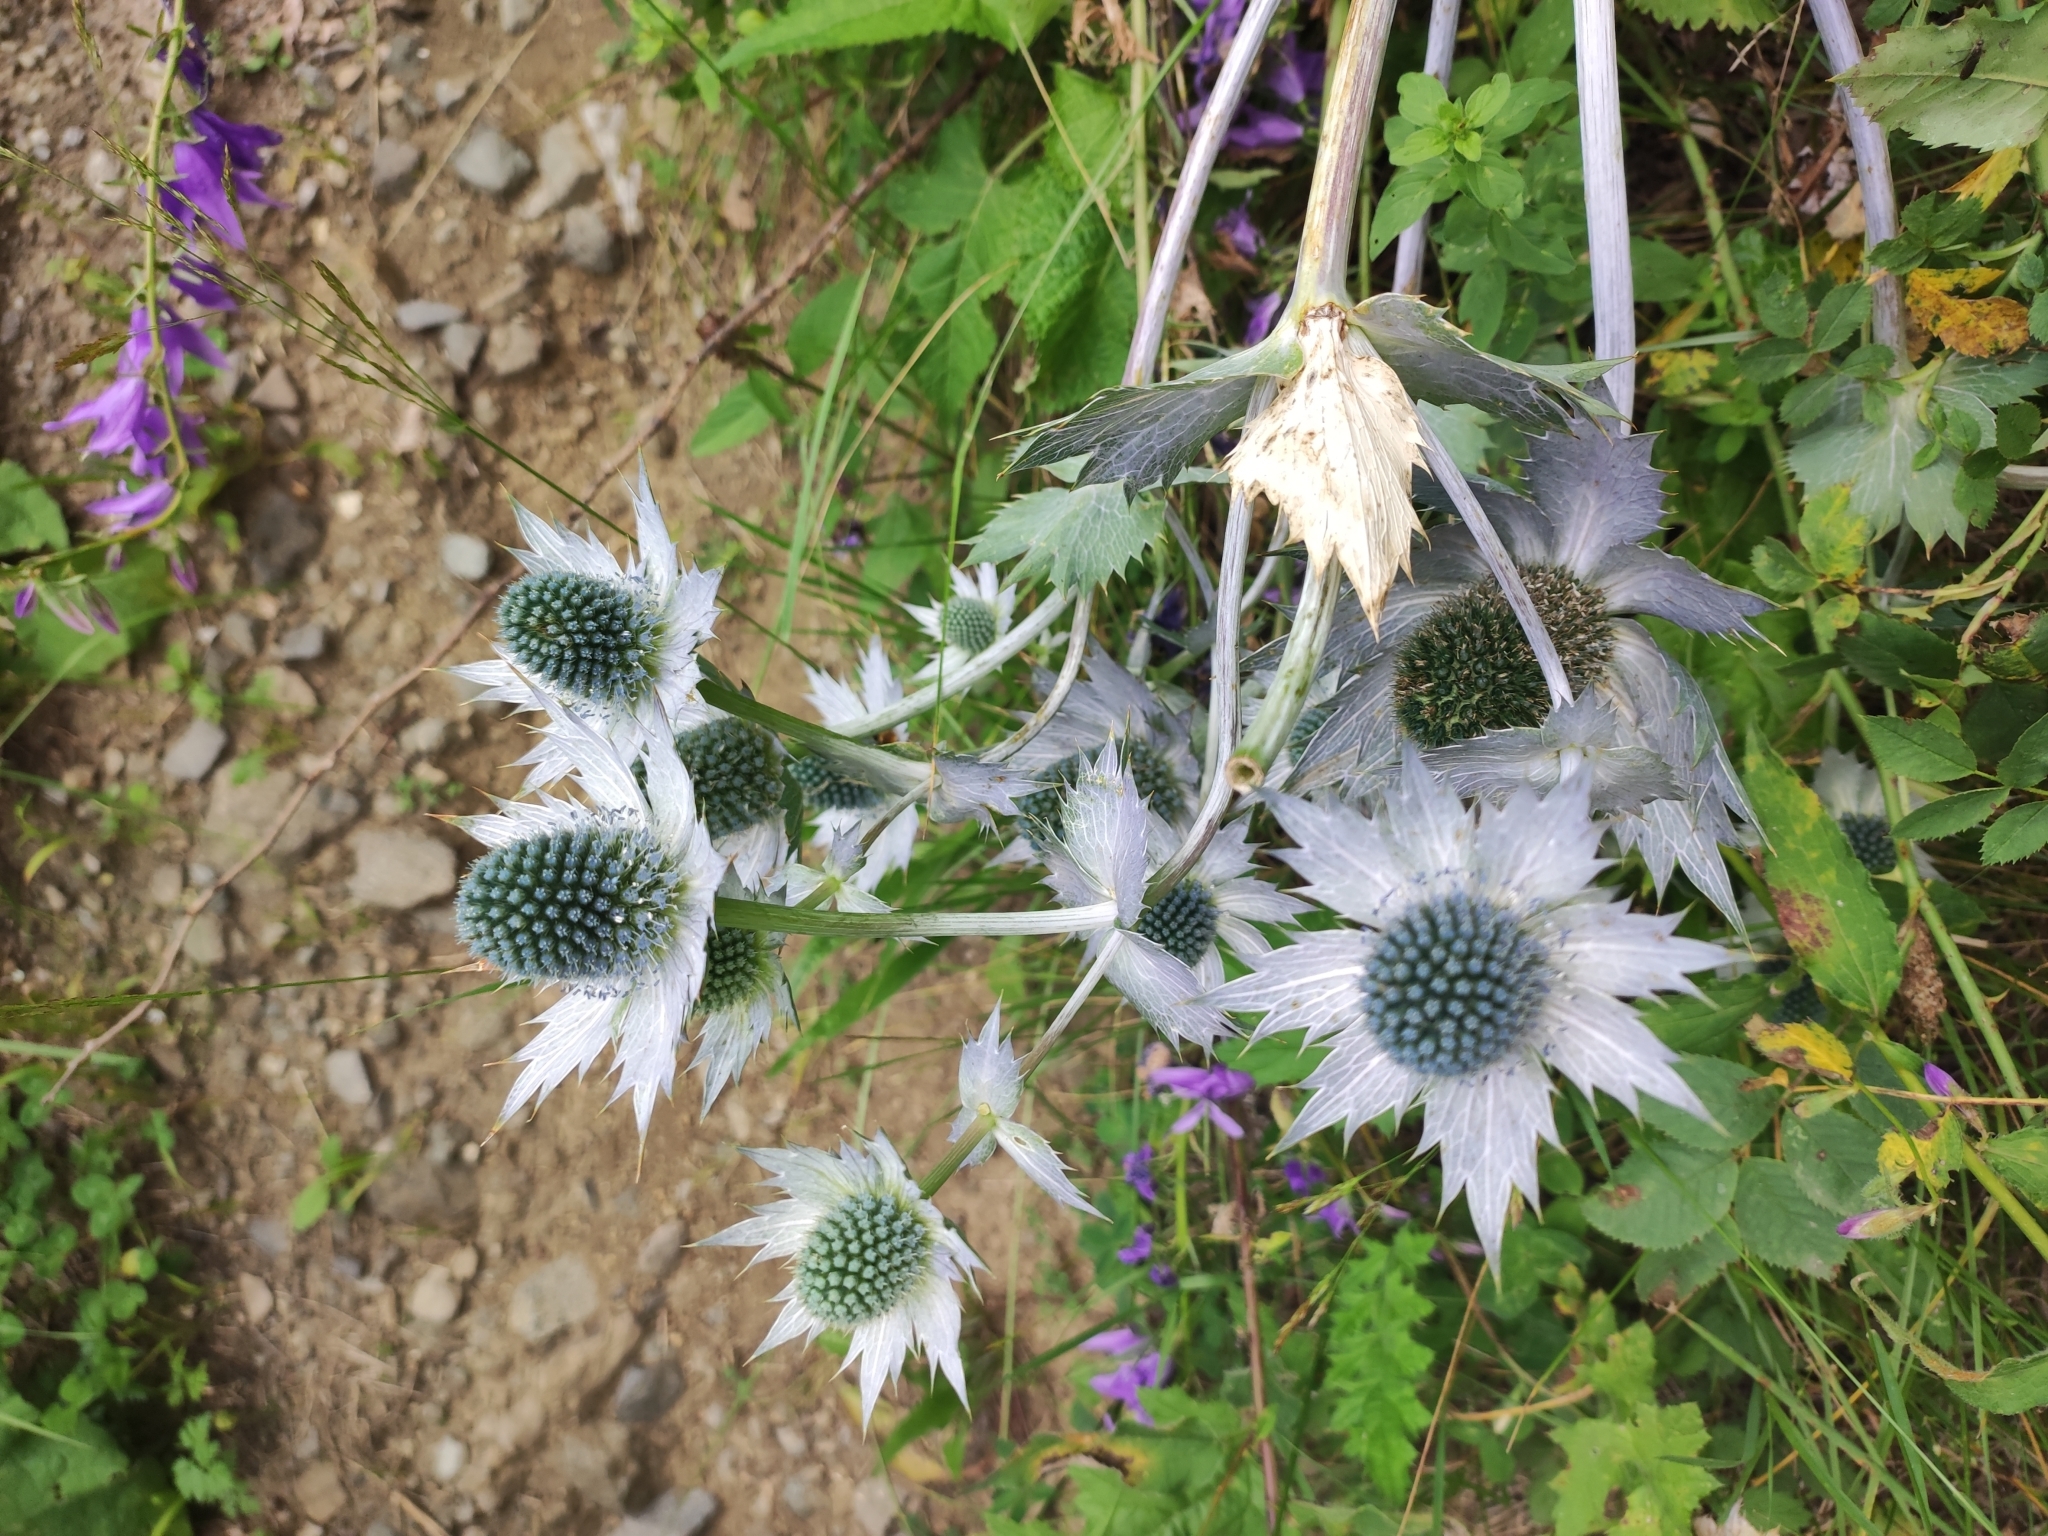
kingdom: Plantae
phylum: Tracheophyta
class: Magnoliopsida
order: Apiales
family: Apiaceae
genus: Eryngium
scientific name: Eryngium giganteum
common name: Tall eryngo
